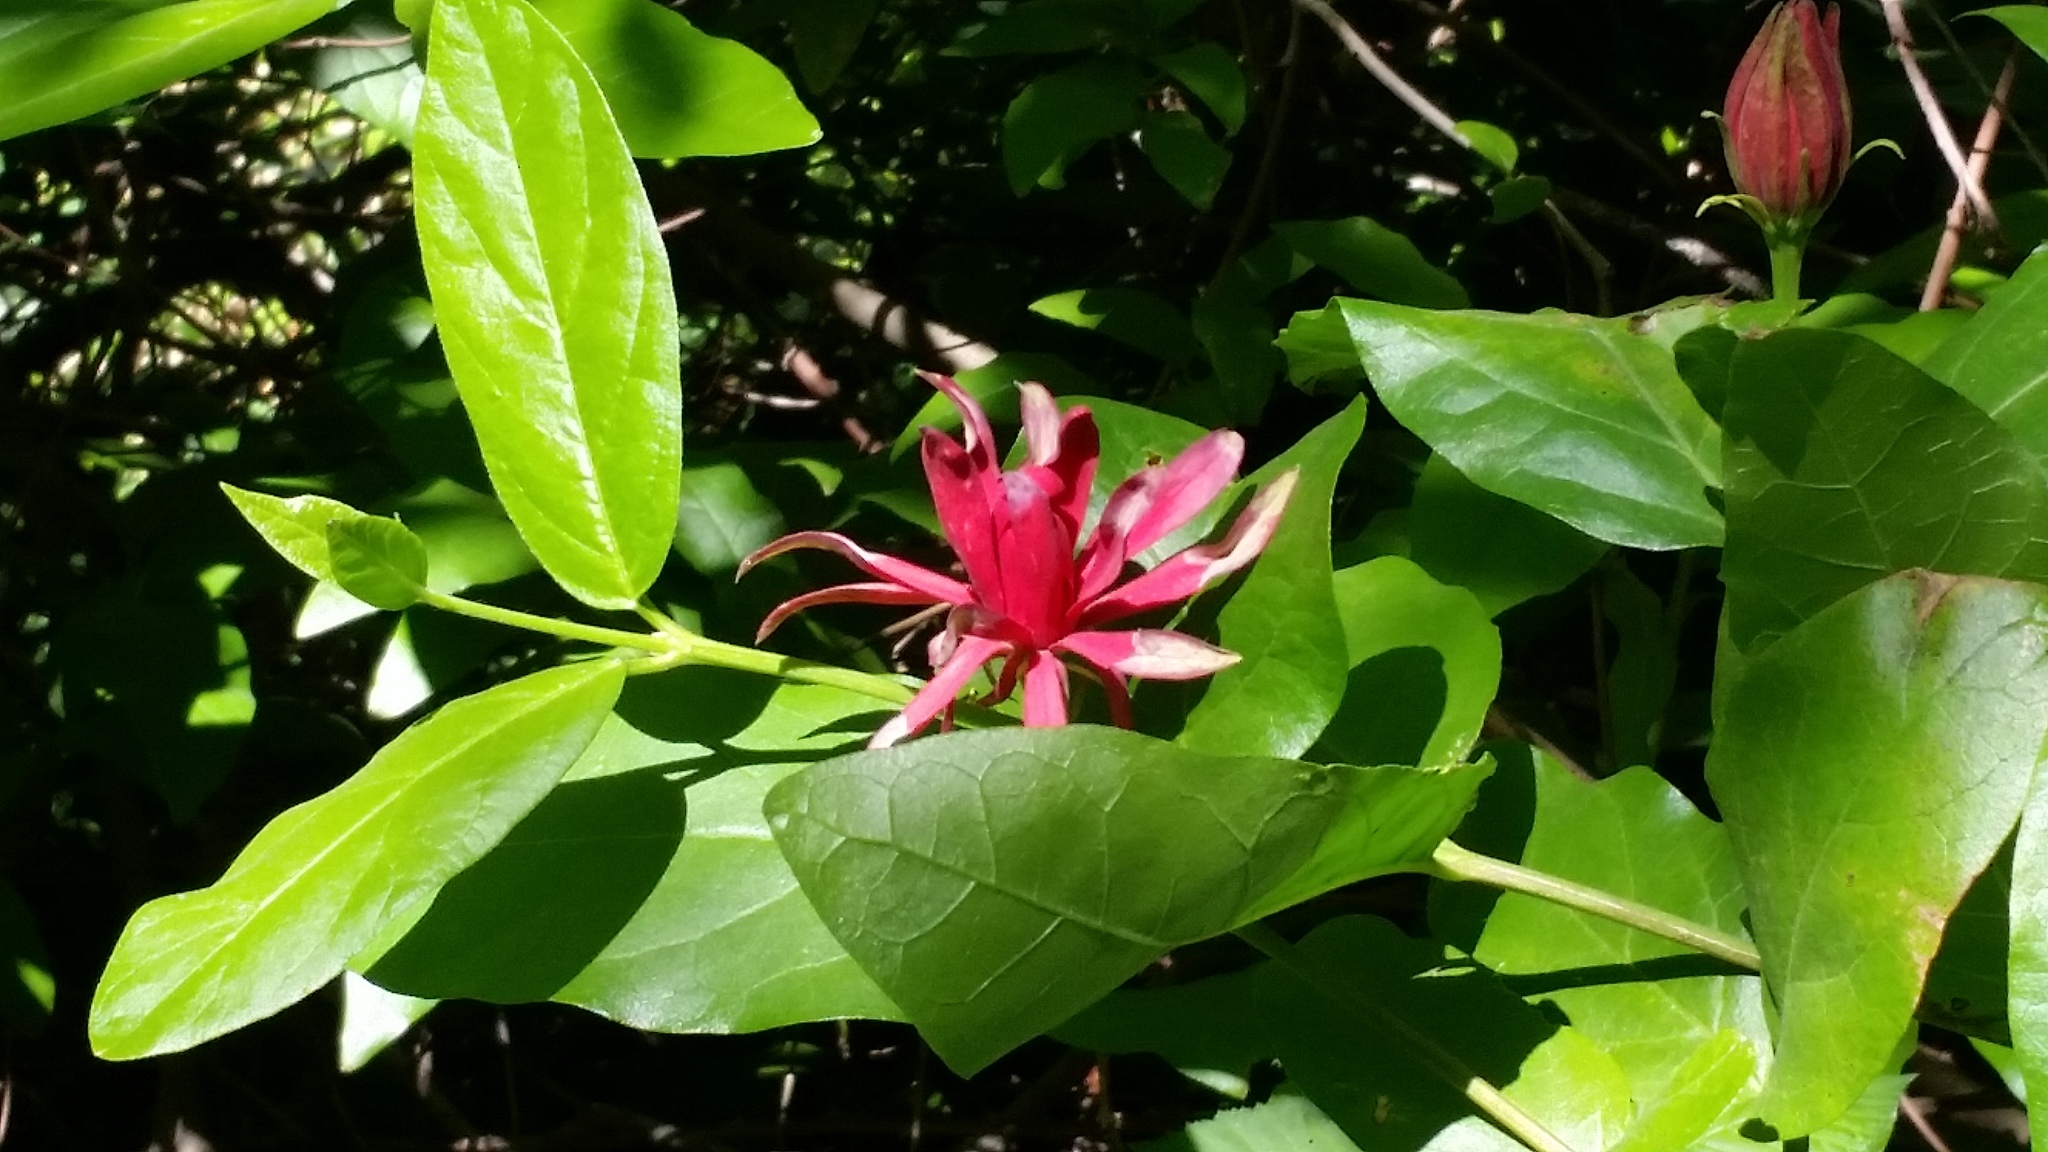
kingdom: Plantae
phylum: Tracheophyta
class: Magnoliopsida
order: Laurales
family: Calycanthaceae
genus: Calycanthus
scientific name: Calycanthus occidentalis
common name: California spicebush
